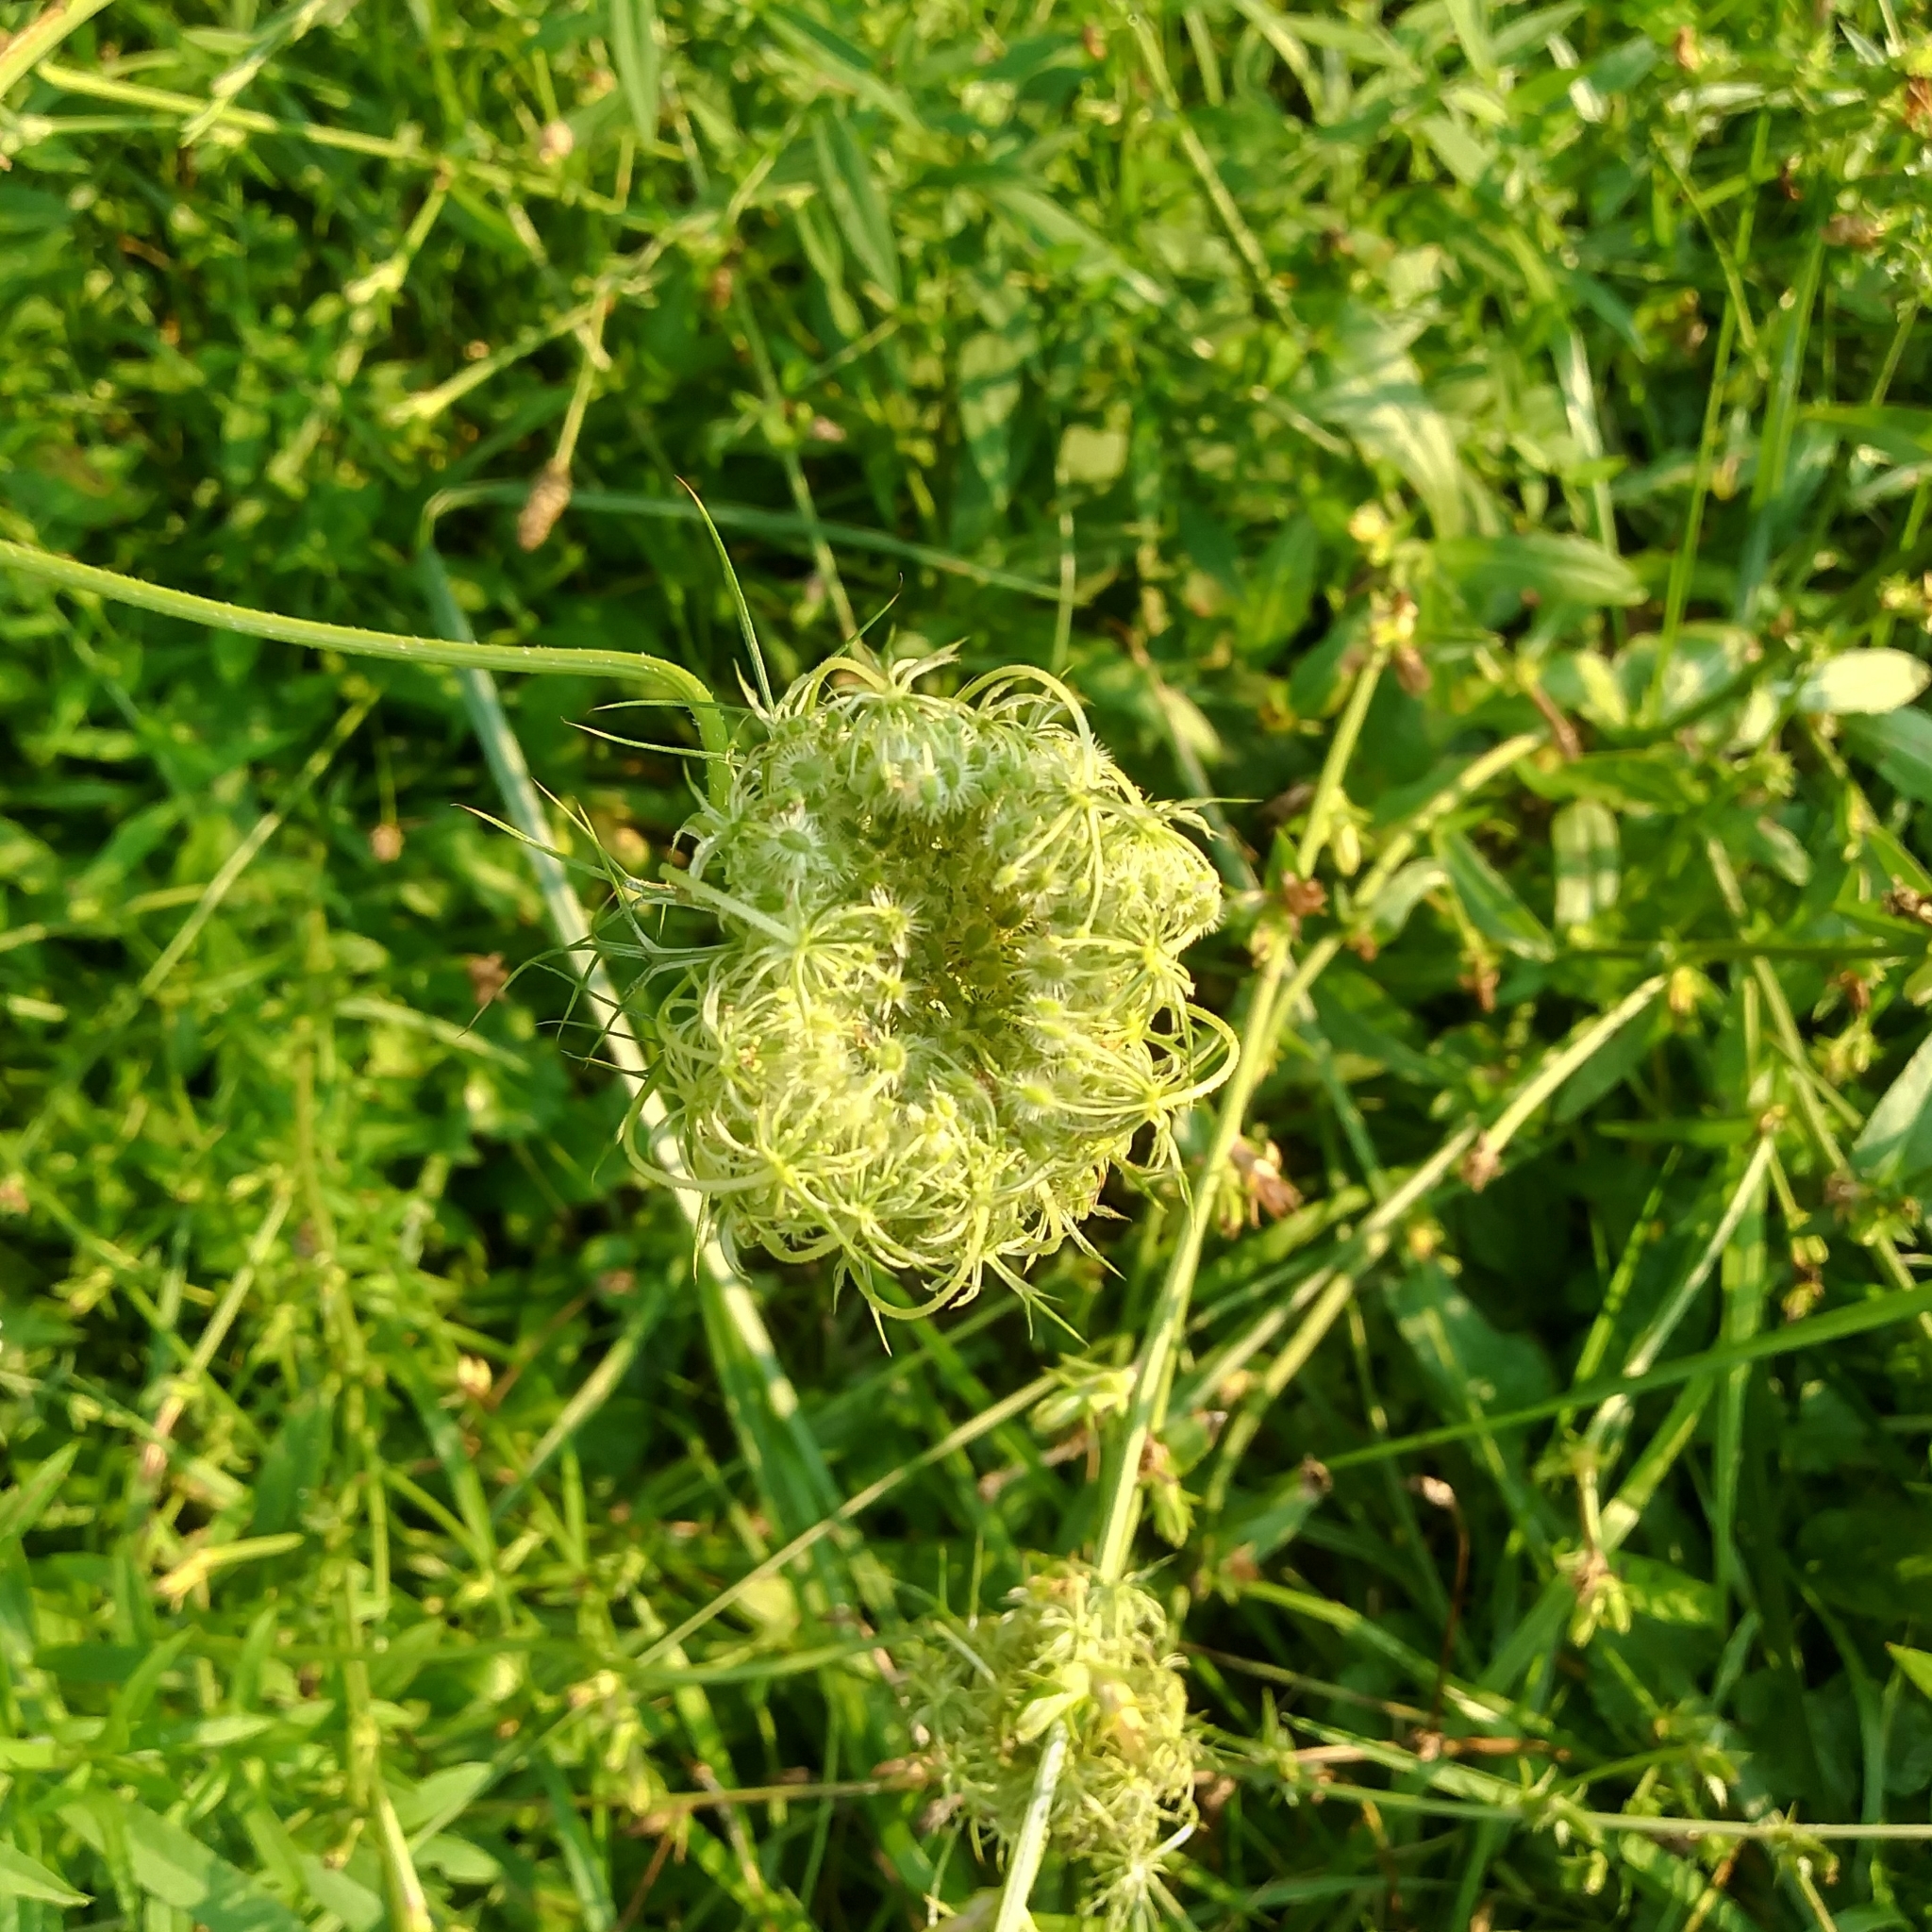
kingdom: Plantae
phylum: Tracheophyta
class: Magnoliopsida
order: Apiales
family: Apiaceae
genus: Daucus
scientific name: Daucus carota
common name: Wild carrot
